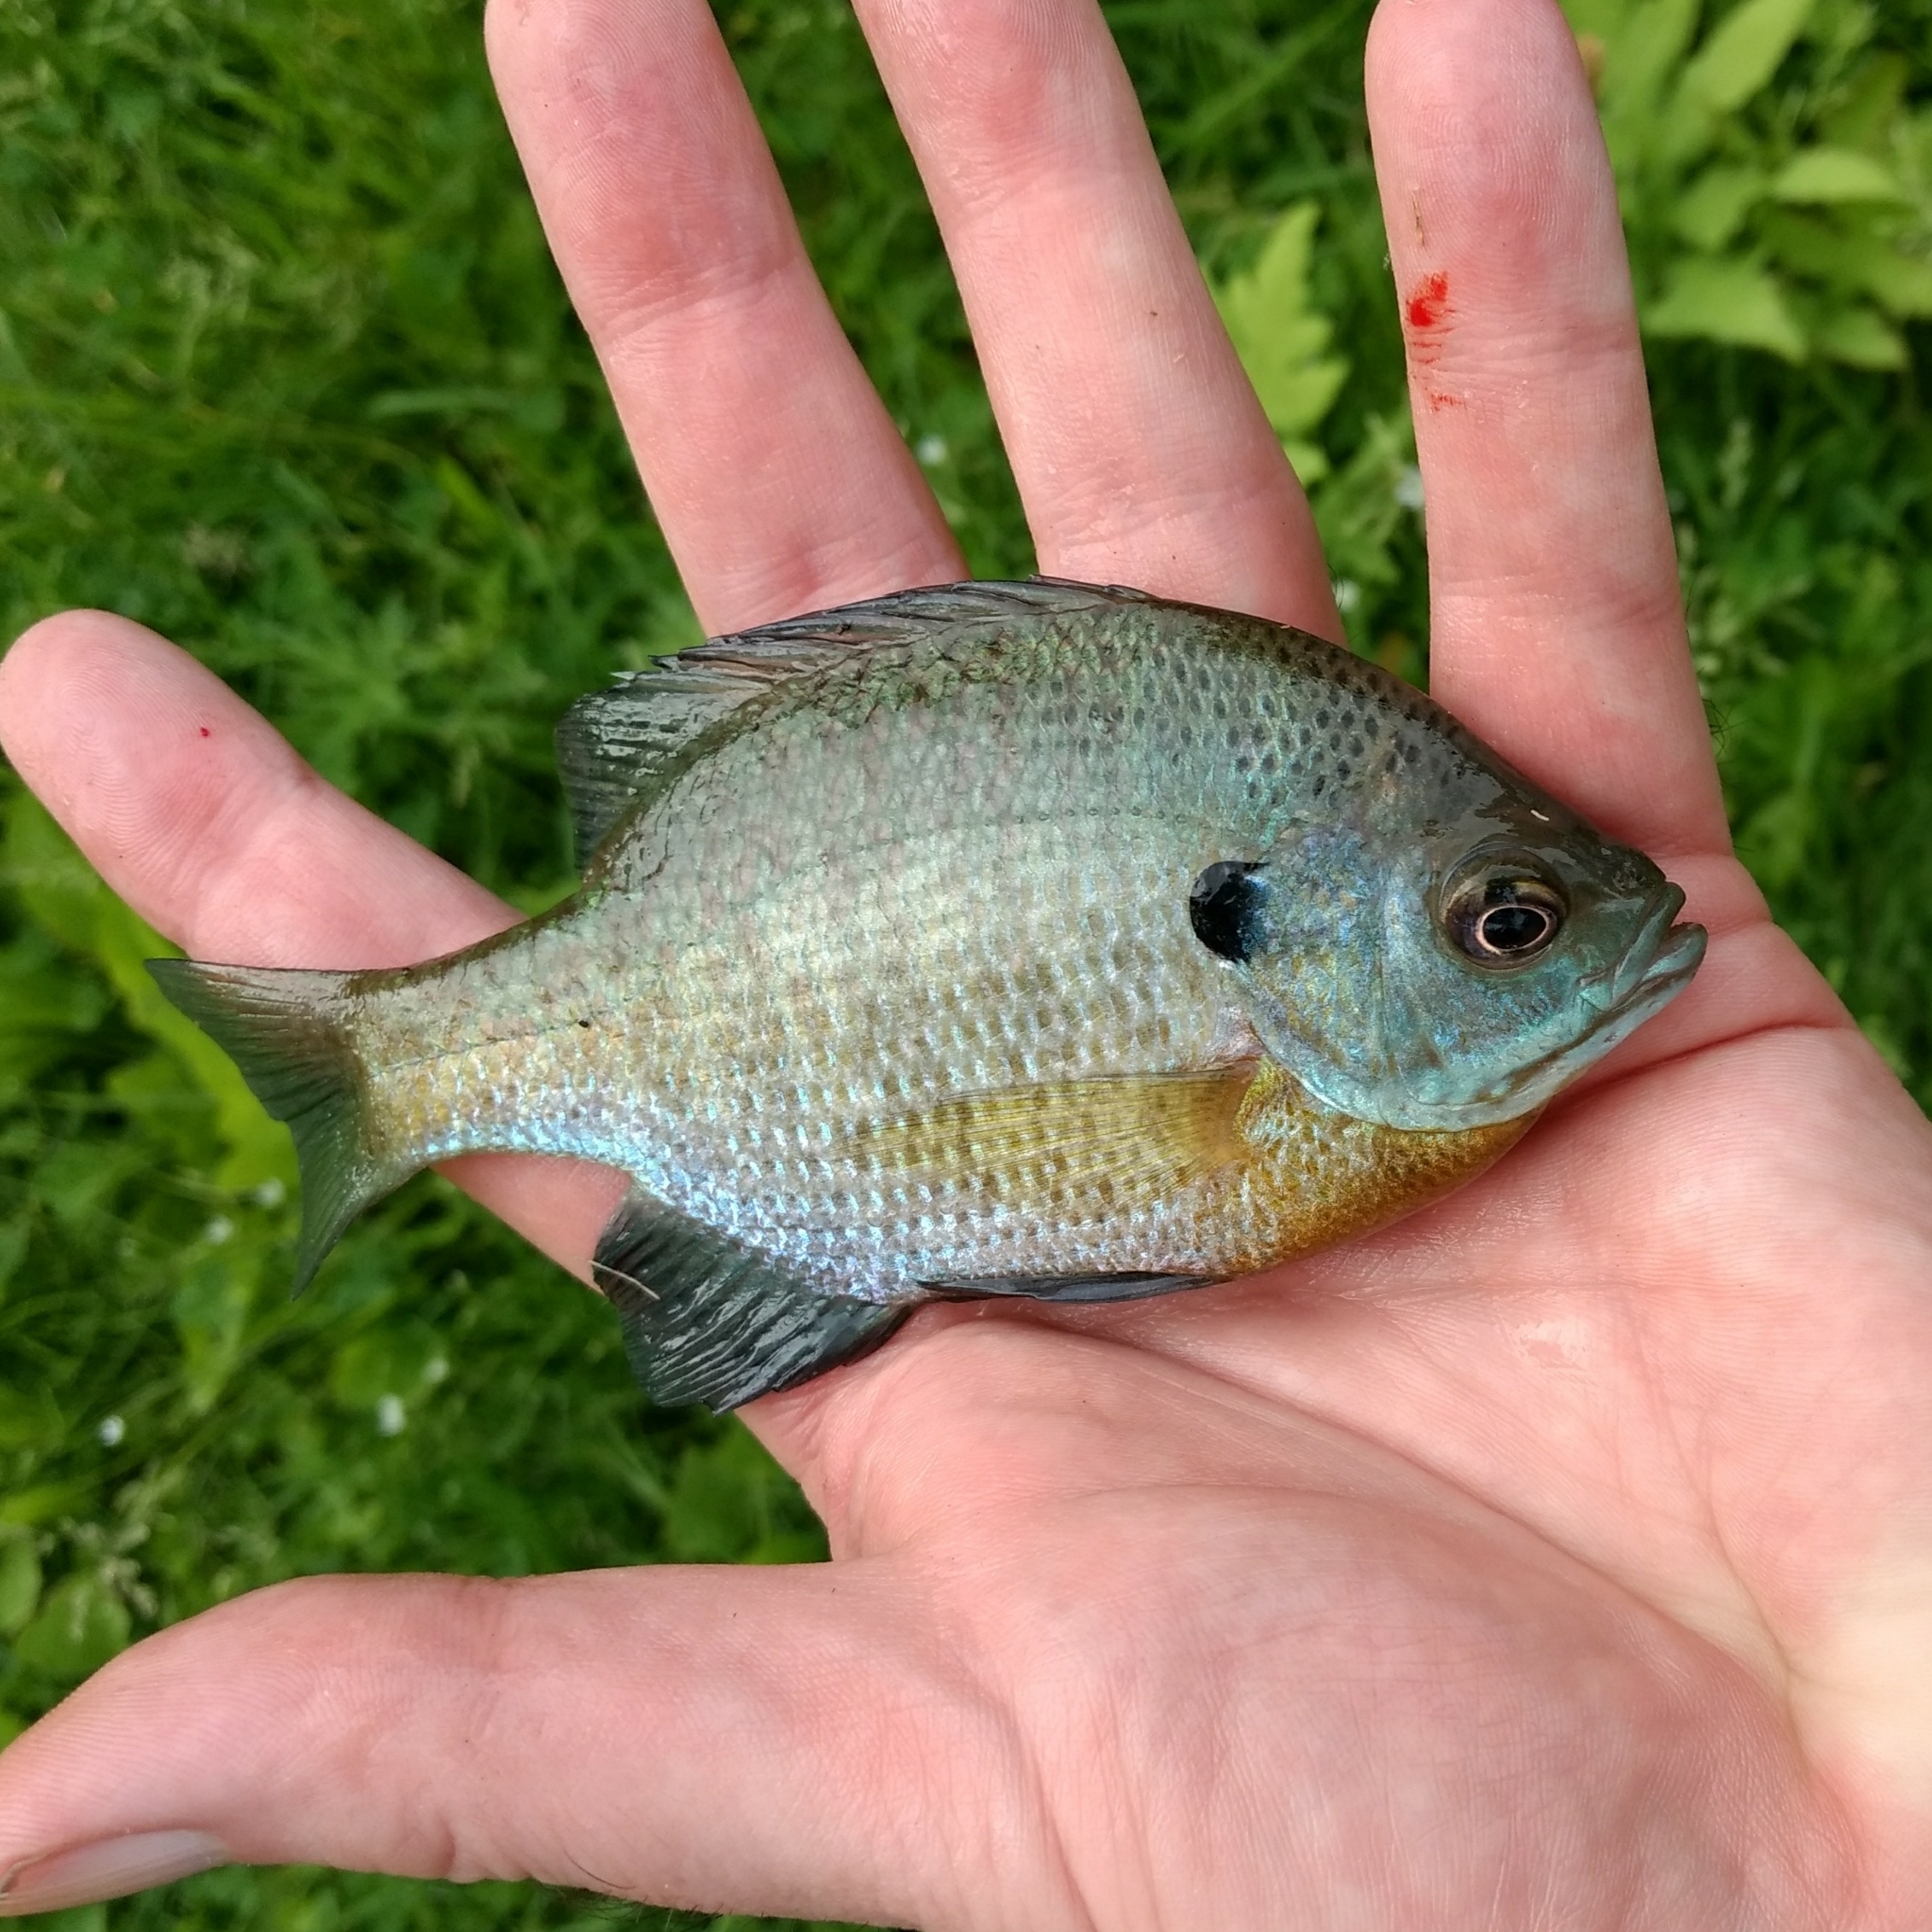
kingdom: Animalia
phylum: Chordata
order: Perciformes
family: Centrarchidae
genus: Lepomis
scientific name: Lepomis macrochirus
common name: Bluegill
